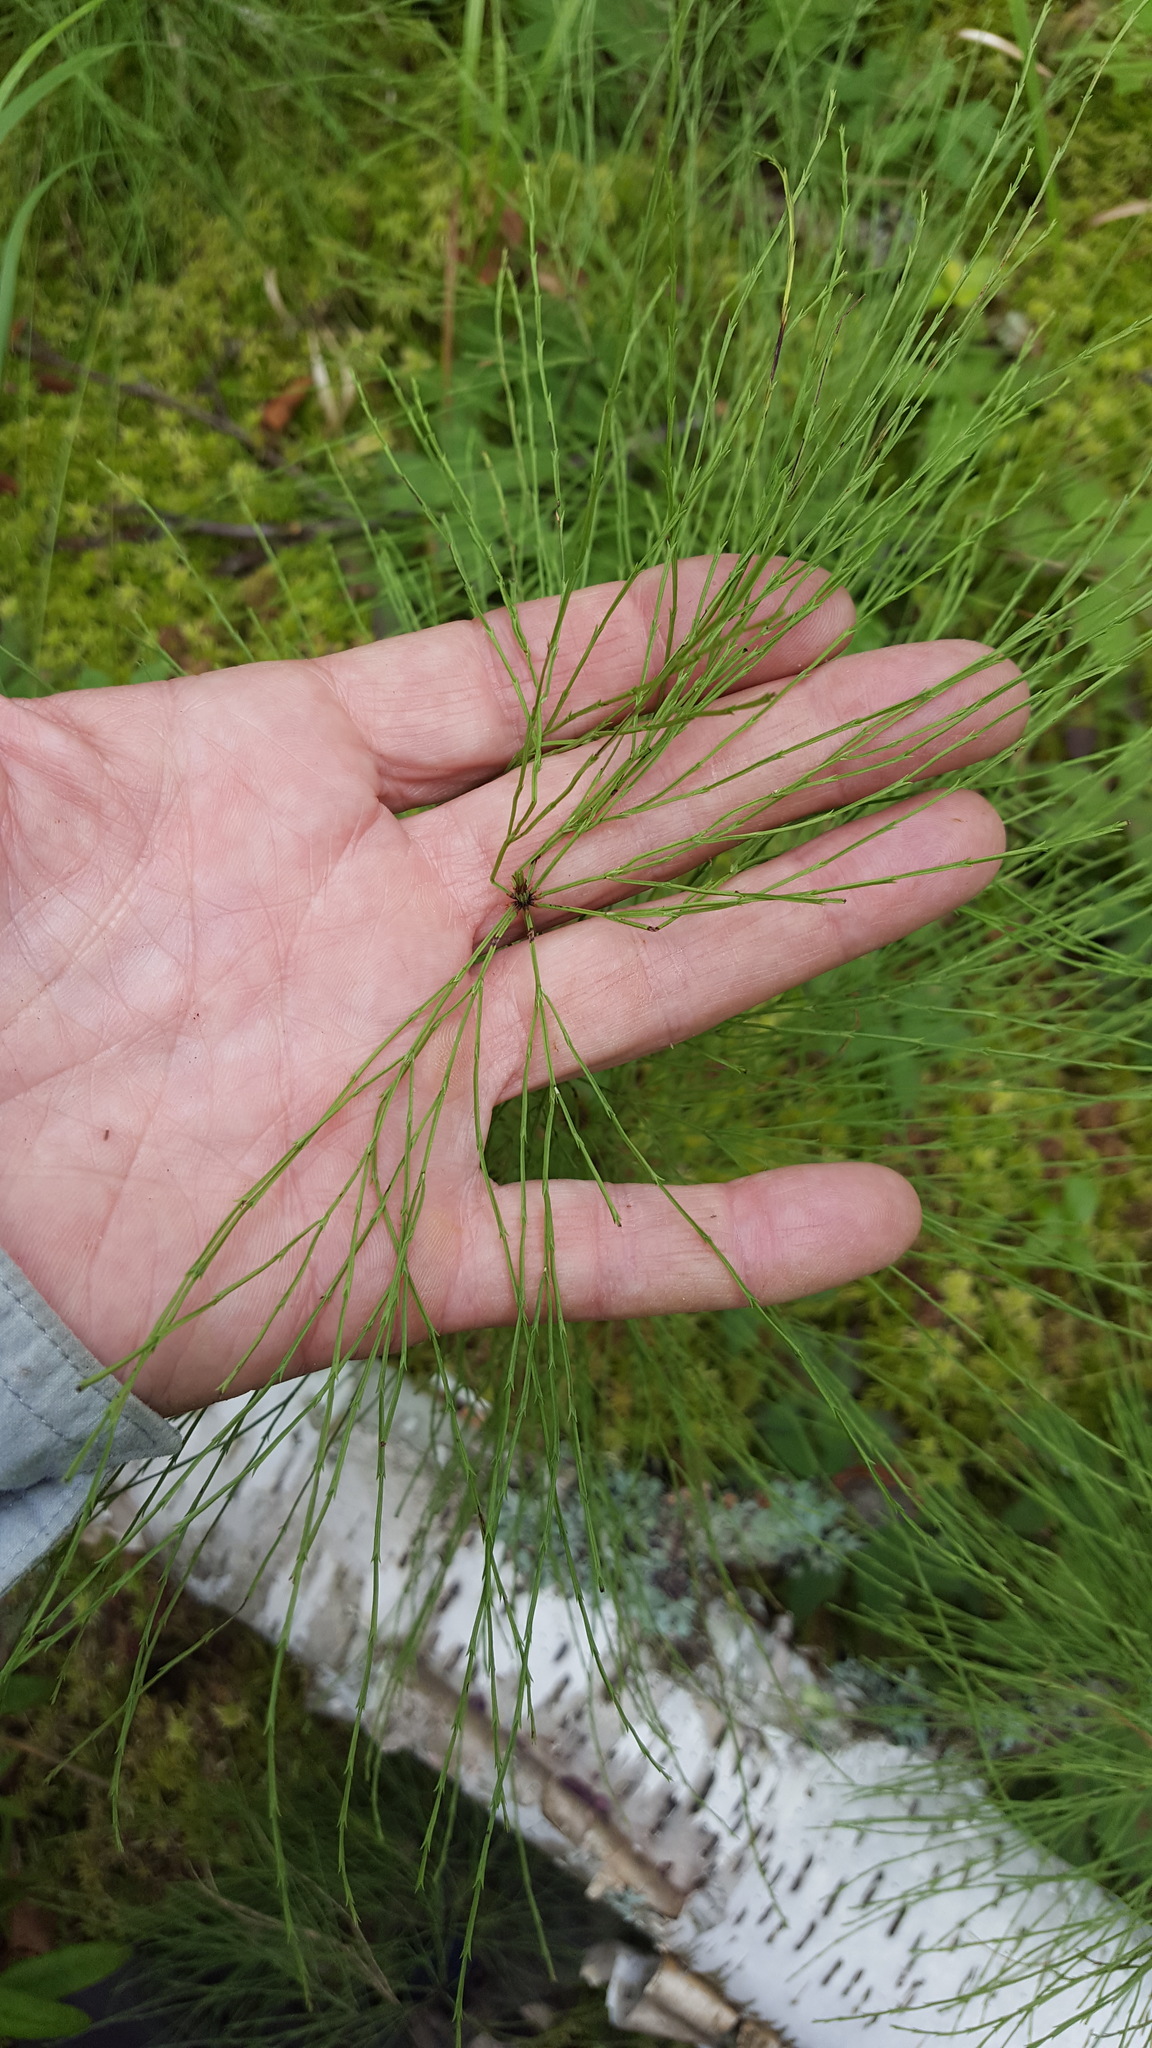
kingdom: Plantae
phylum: Tracheophyta
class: Polypodiopsida
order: Equisetales
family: Equisetaceae
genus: Equisetum
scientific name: Equisetum sylvaticum
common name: Wood horsetail
